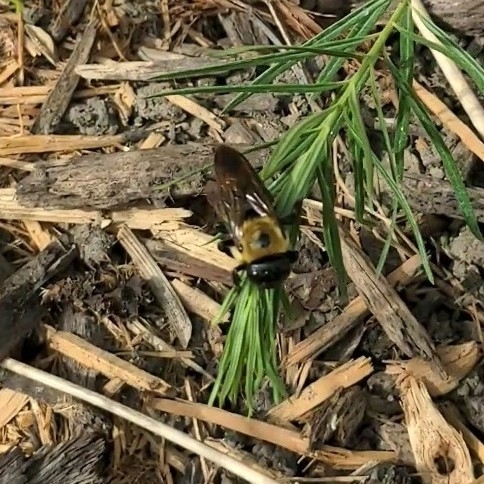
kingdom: Animalia
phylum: Arthropoda
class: Insecta
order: Hymenoptera
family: Apidae
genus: Xylocopa
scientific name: Xylocopa virginica
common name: Carpenter bee
